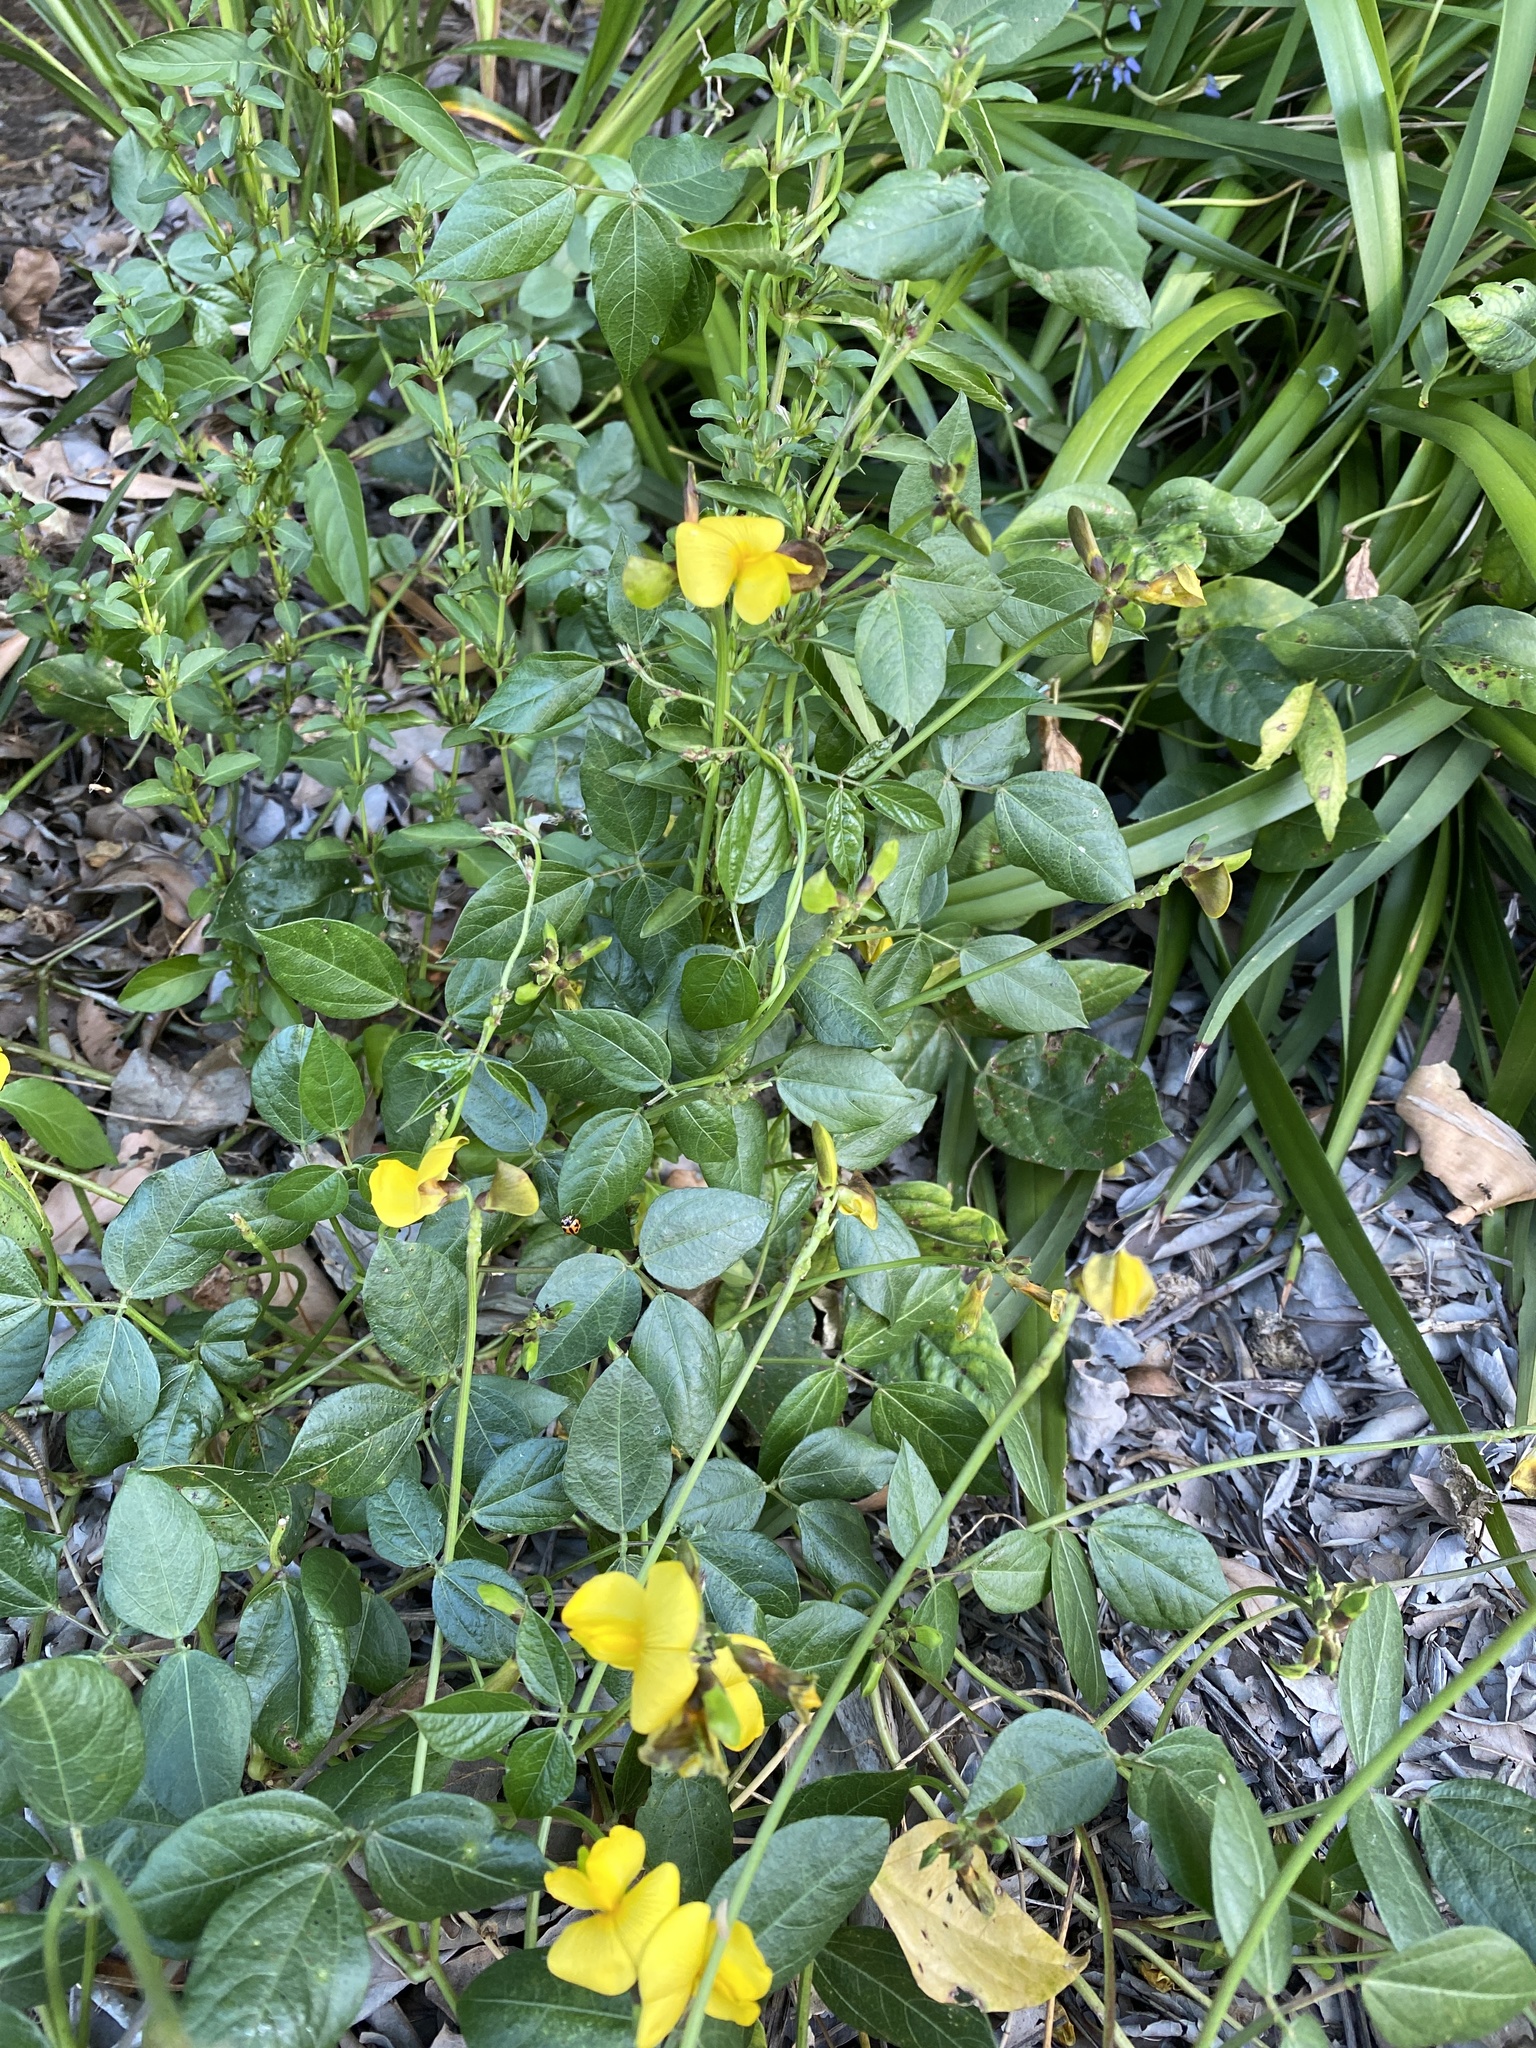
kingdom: Plantae
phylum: Tracheophyta
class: Magnoliopsida
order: Fabales
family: Fabaceae
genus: Vigna
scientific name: Vigna luteola
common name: Hairypod cowpea
